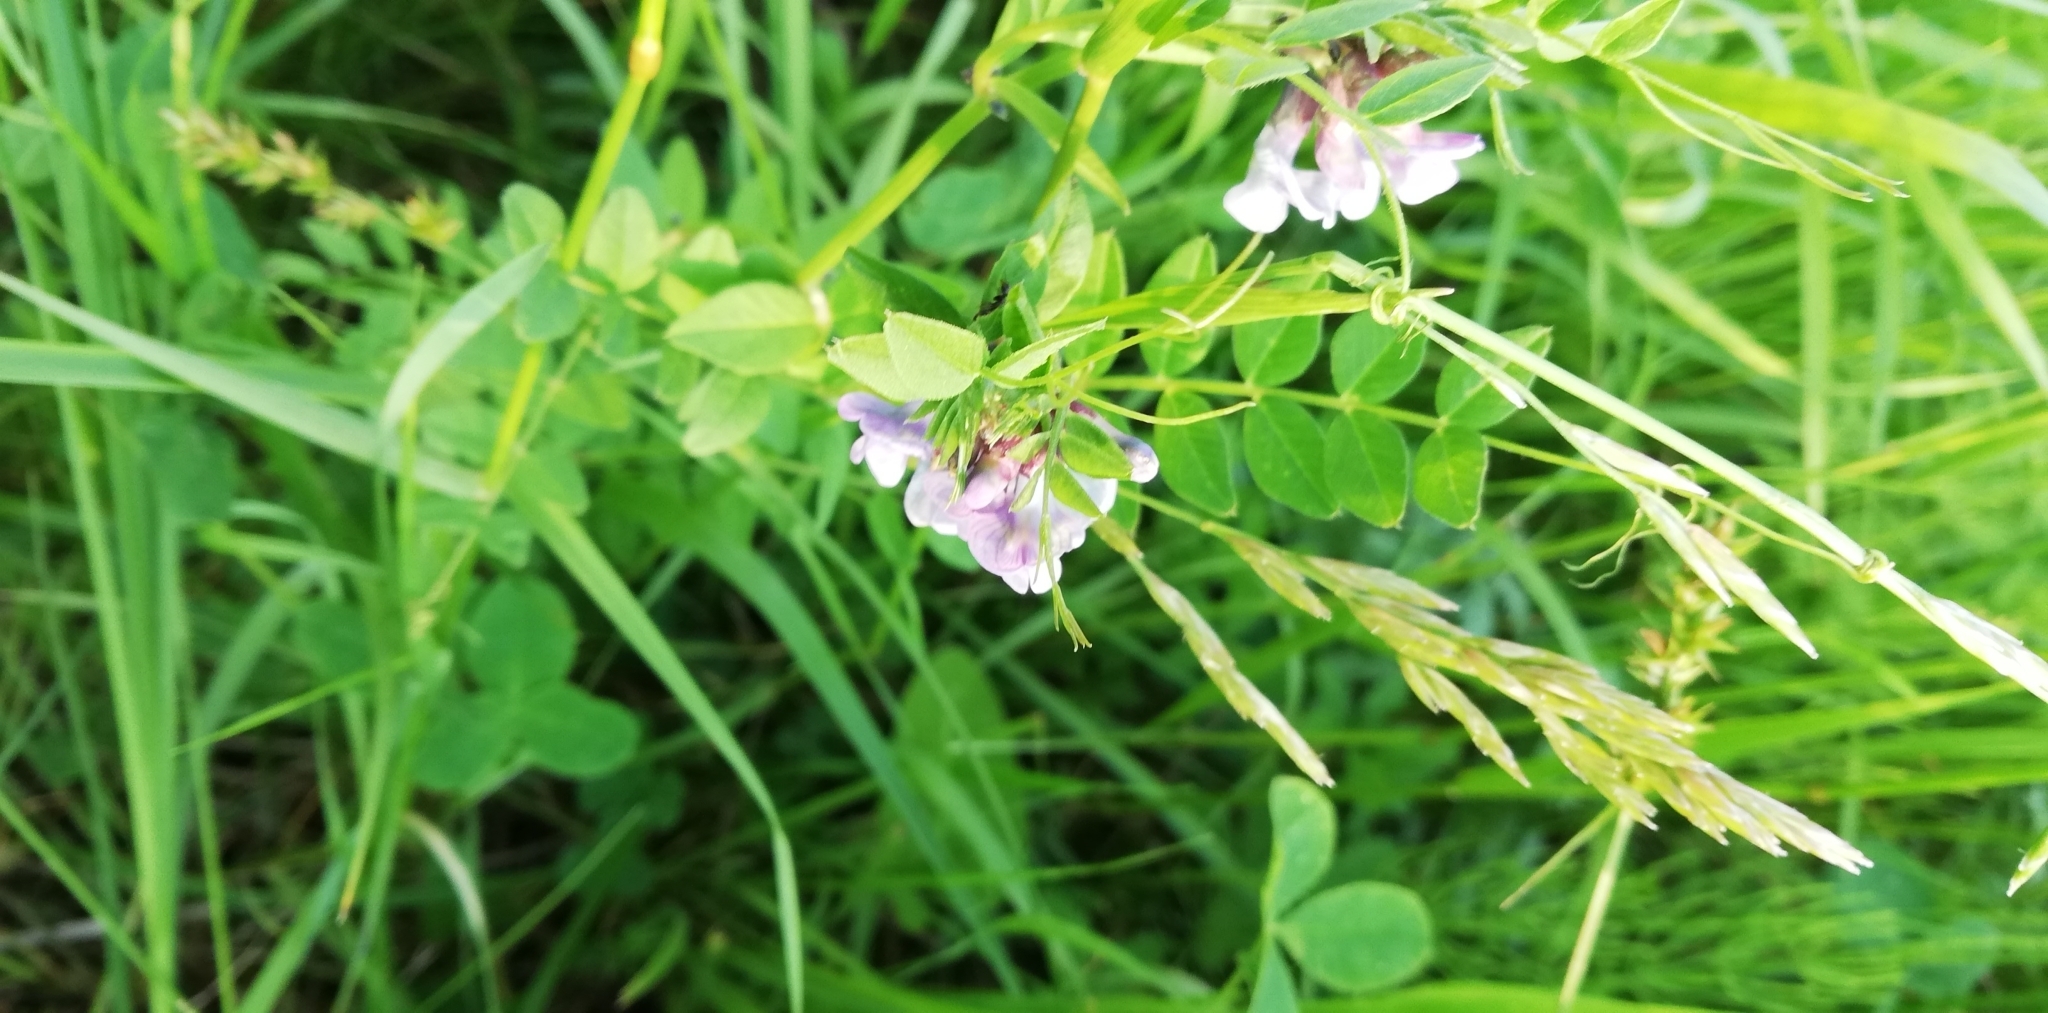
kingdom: Plantae
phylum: Tracheophyta
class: Magnoliopsida
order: Fabales
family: Fabaceae
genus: Vicia
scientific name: Vicia sepium
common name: Bush vetch
